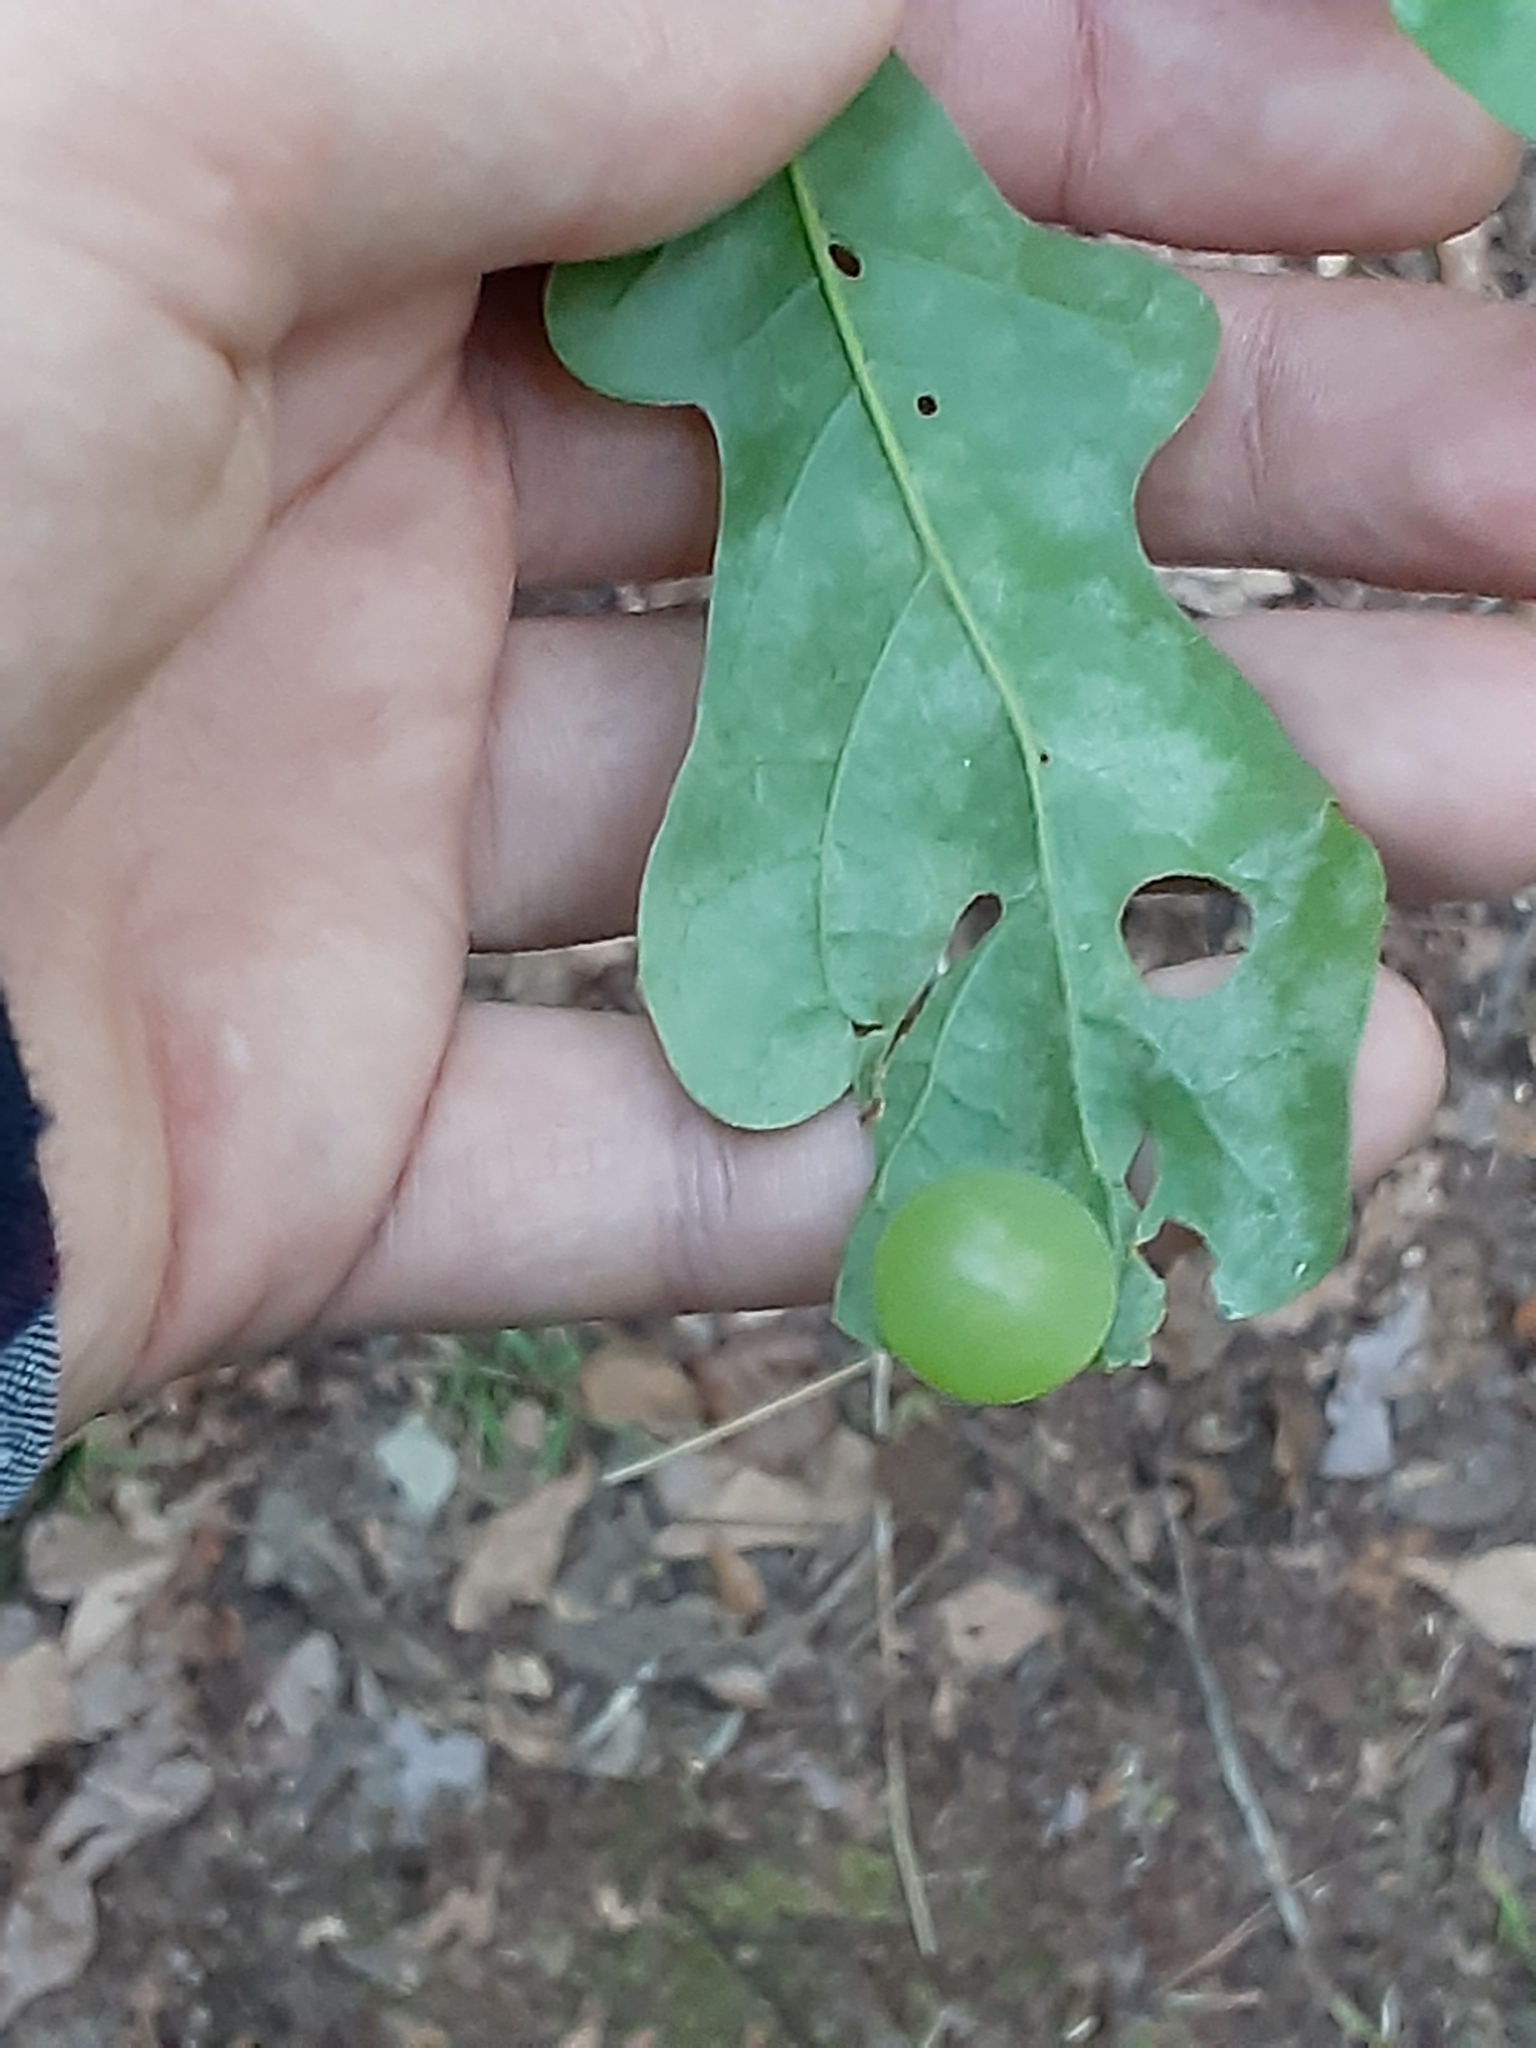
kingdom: Animalia
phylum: Arthropoda
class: Insecta
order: Hymenoptera
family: Cynipidae
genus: Amphibolips
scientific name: Amphibolips
